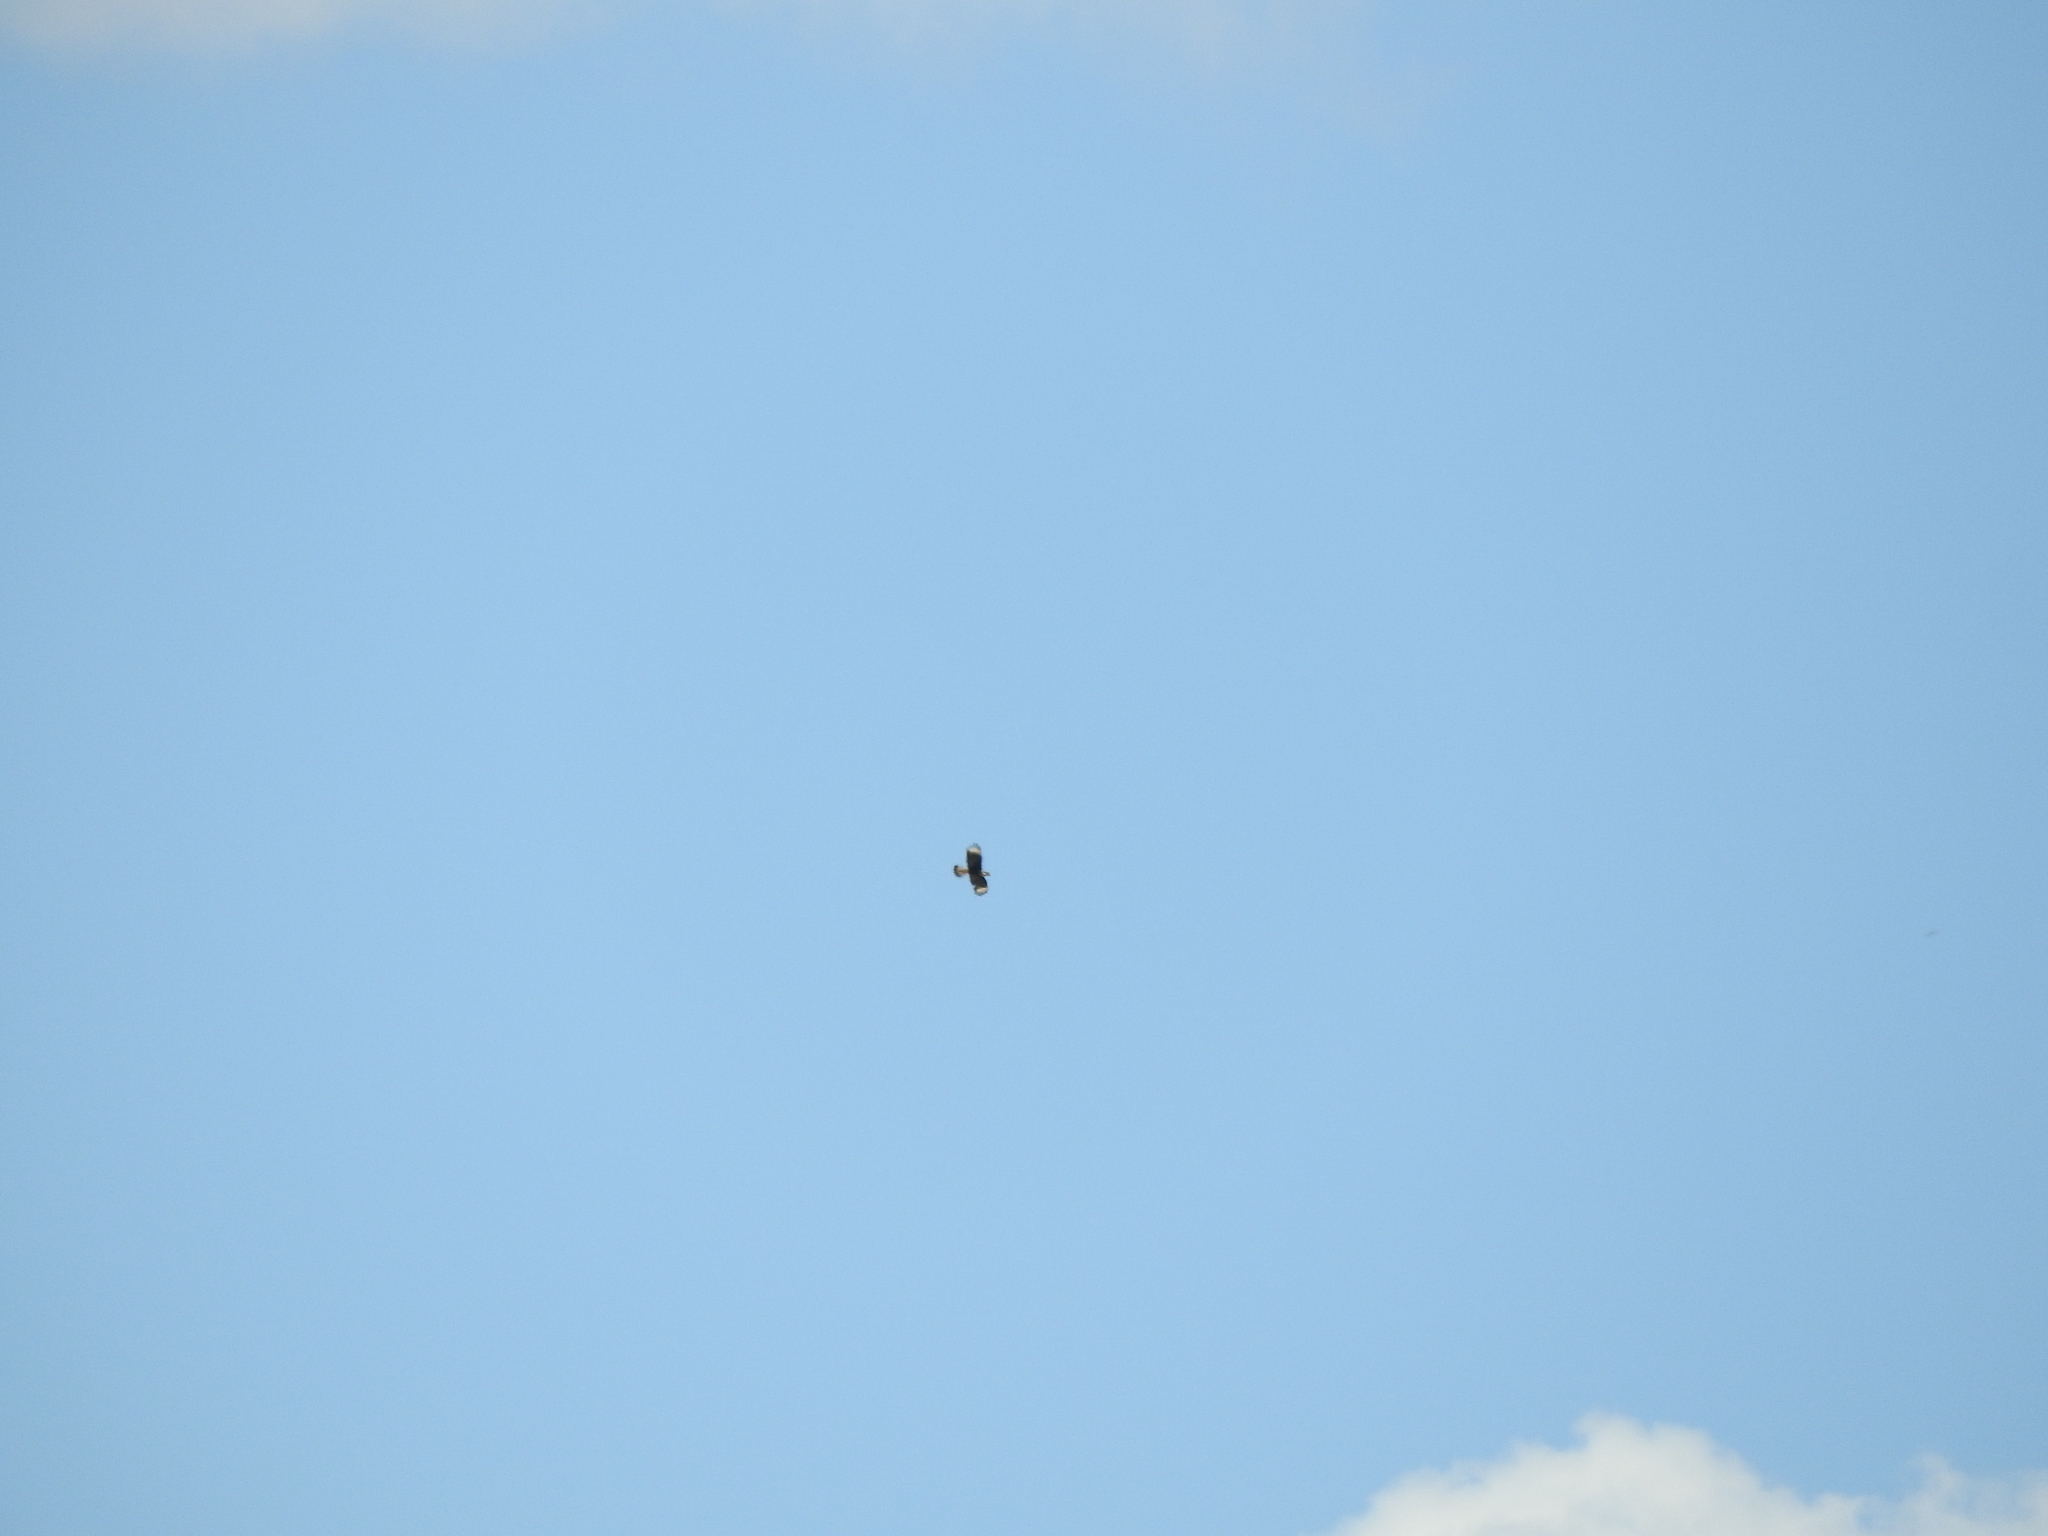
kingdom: Animalia
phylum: Chordata
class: Aves
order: Falconiformes
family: Falconidae
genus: Caracara
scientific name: Caracara plancus
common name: Southern caracara
